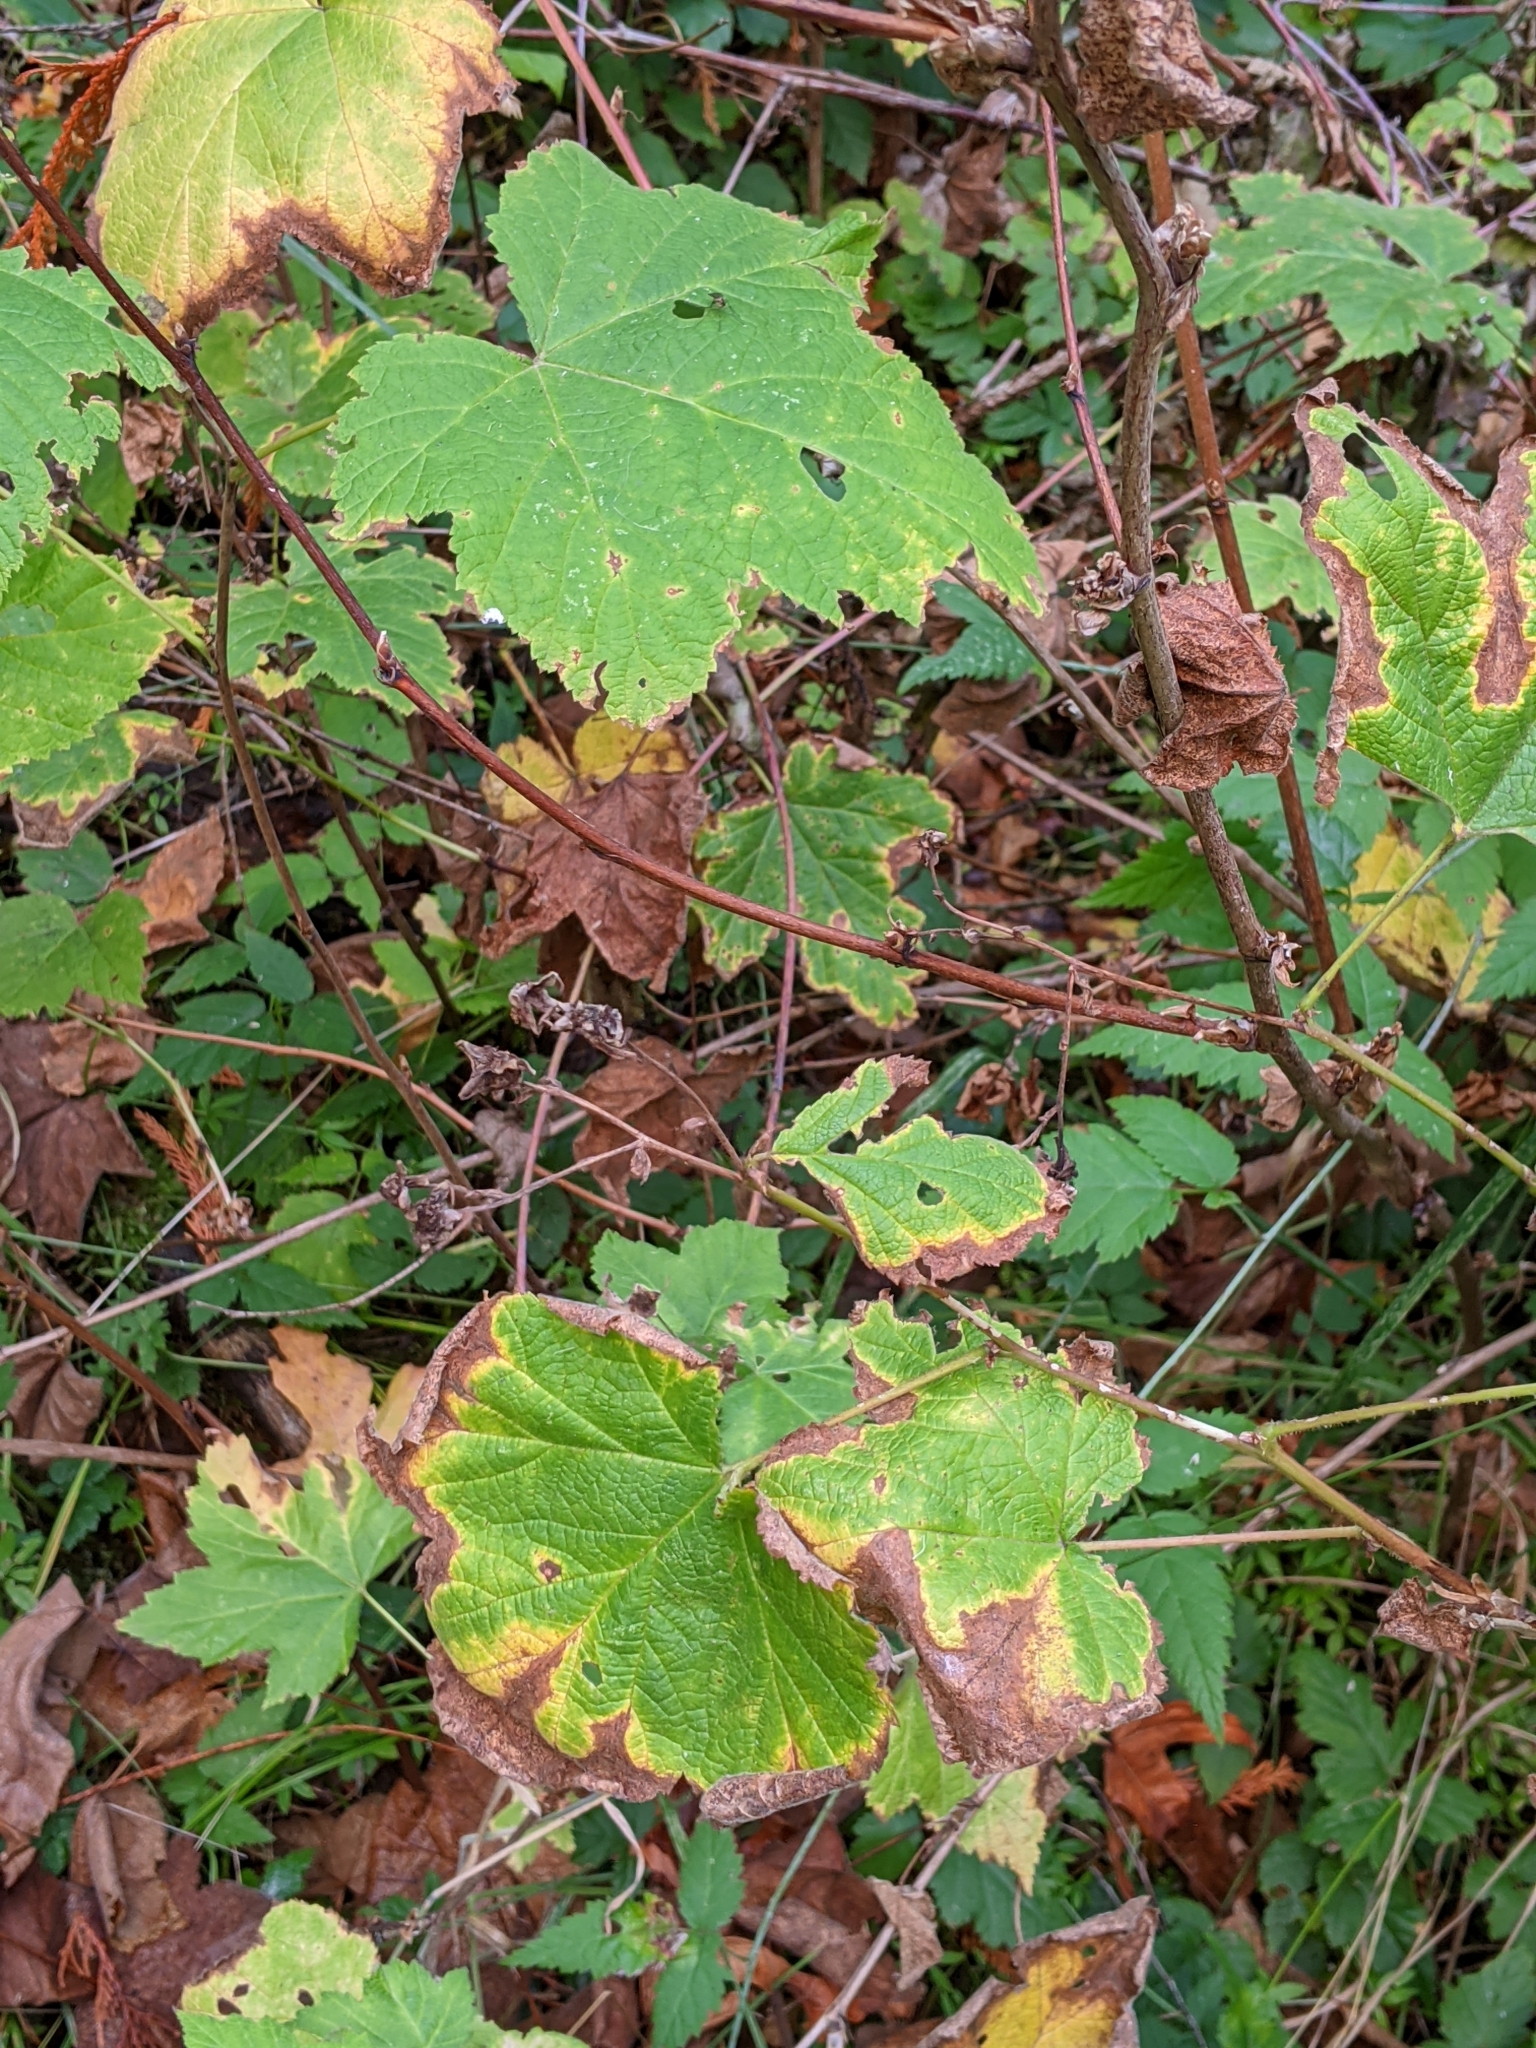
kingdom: Plantae
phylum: Tracheophyta
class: Magnoliopsida
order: Rosales
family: Rosaceae
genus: Rubus
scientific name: Rubus parviflorus
